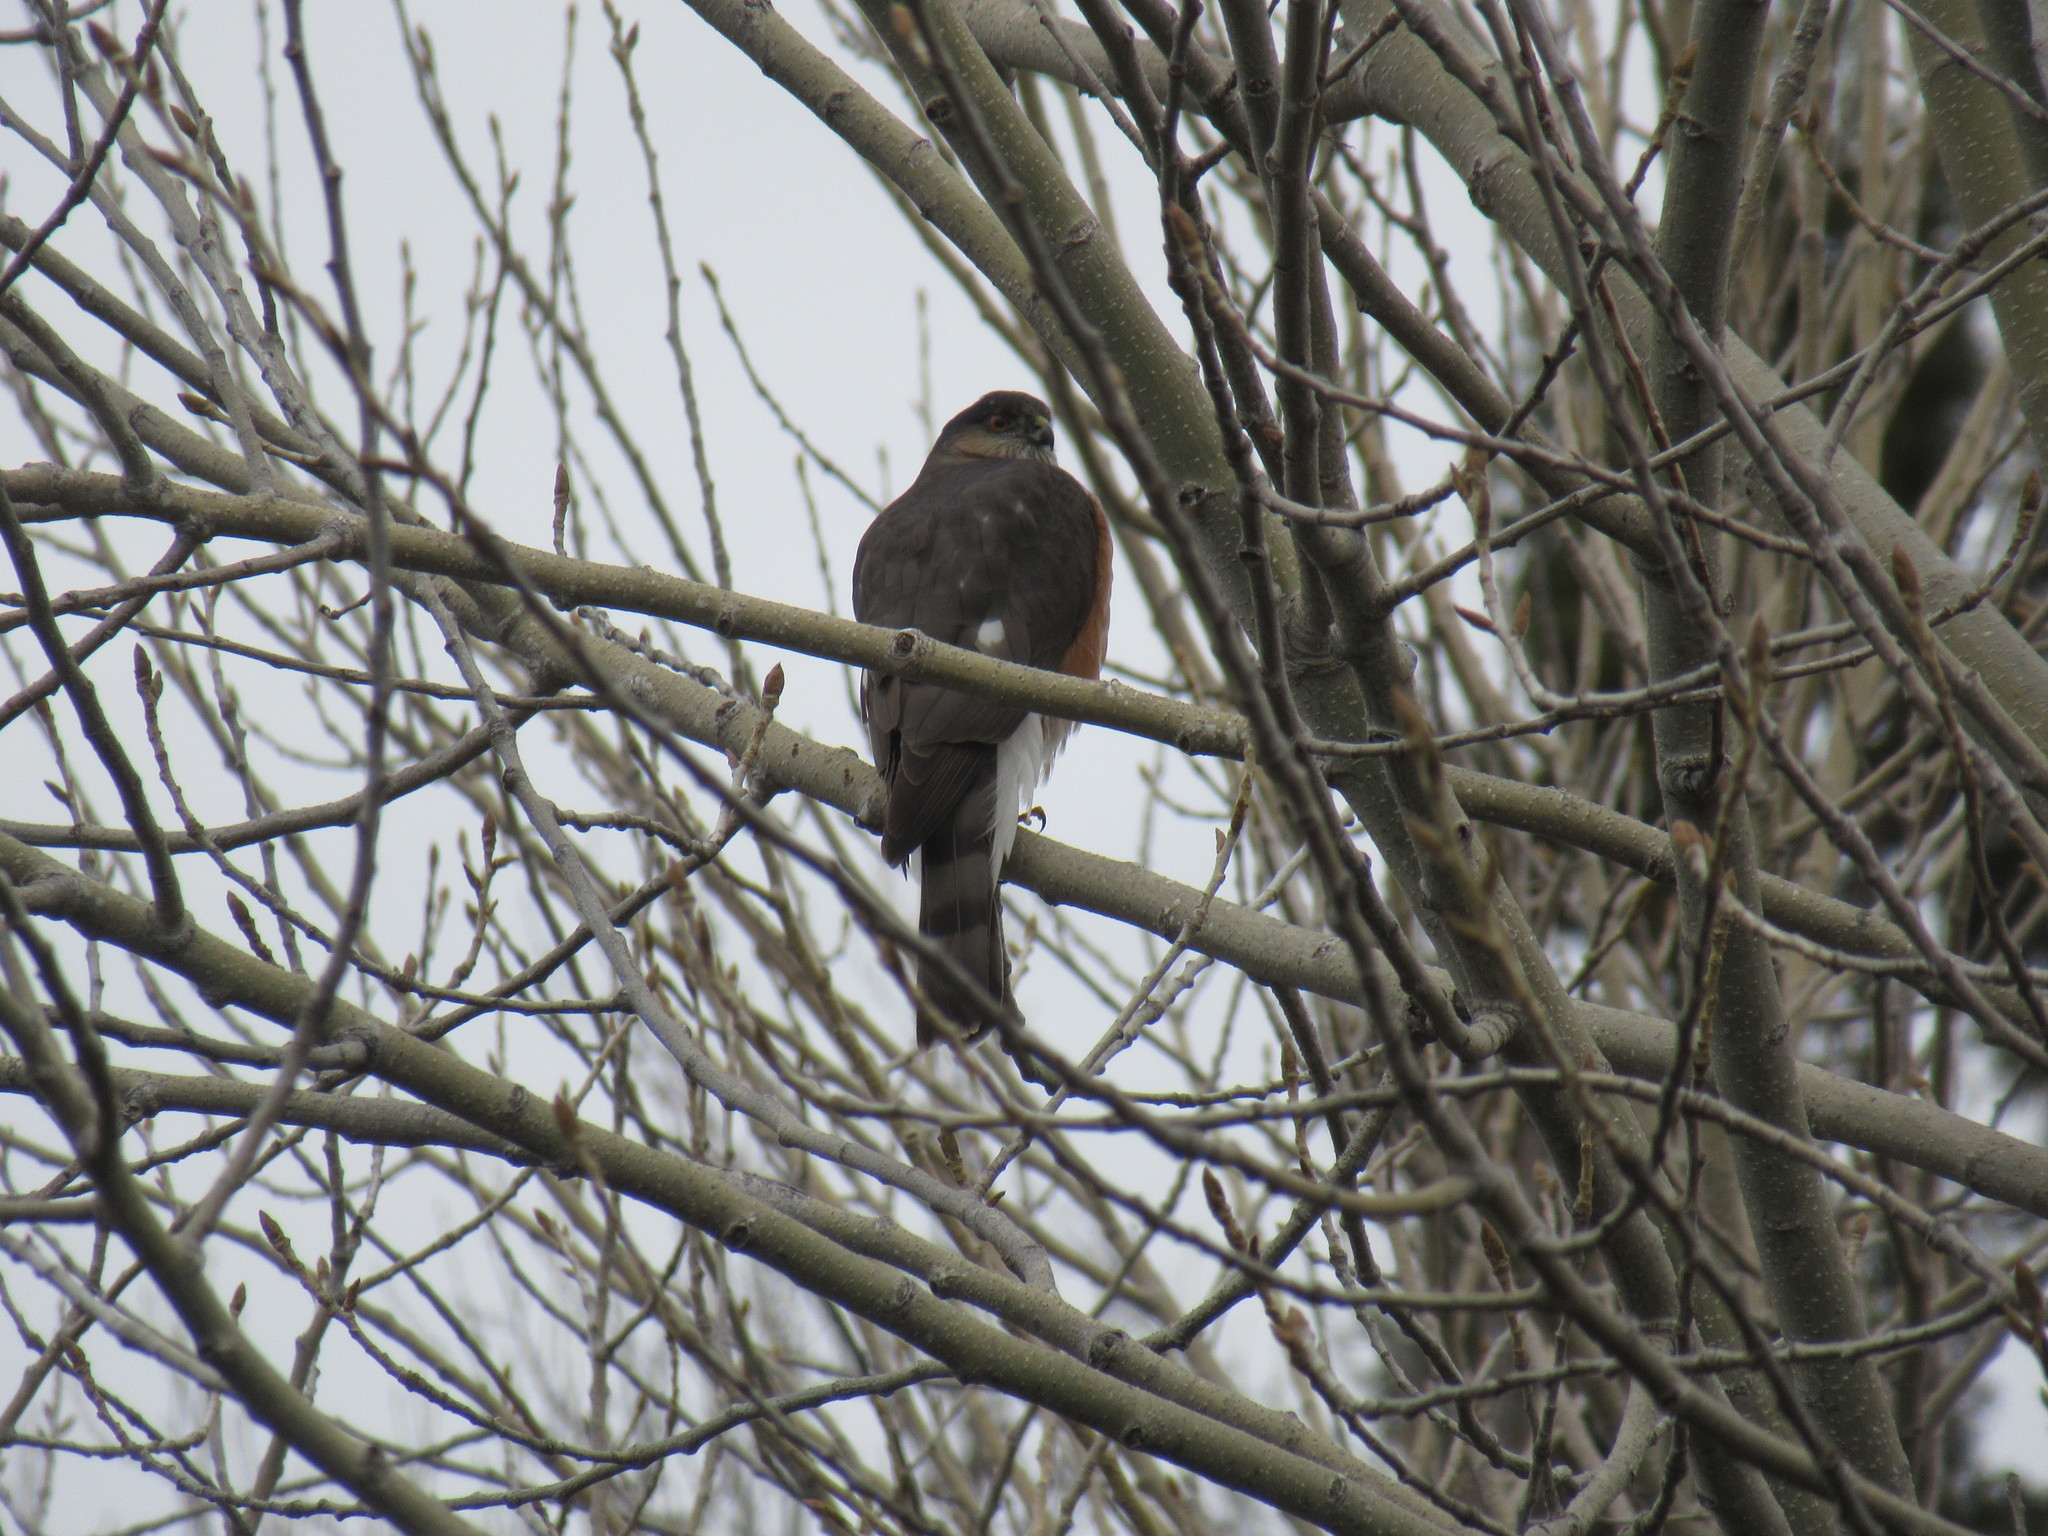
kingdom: Animalia
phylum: Chordata
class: Aves
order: Accipitriformes
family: Accipitridae
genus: Accipiter
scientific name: Accipiter striatus
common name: Sharp-shinned hawk
